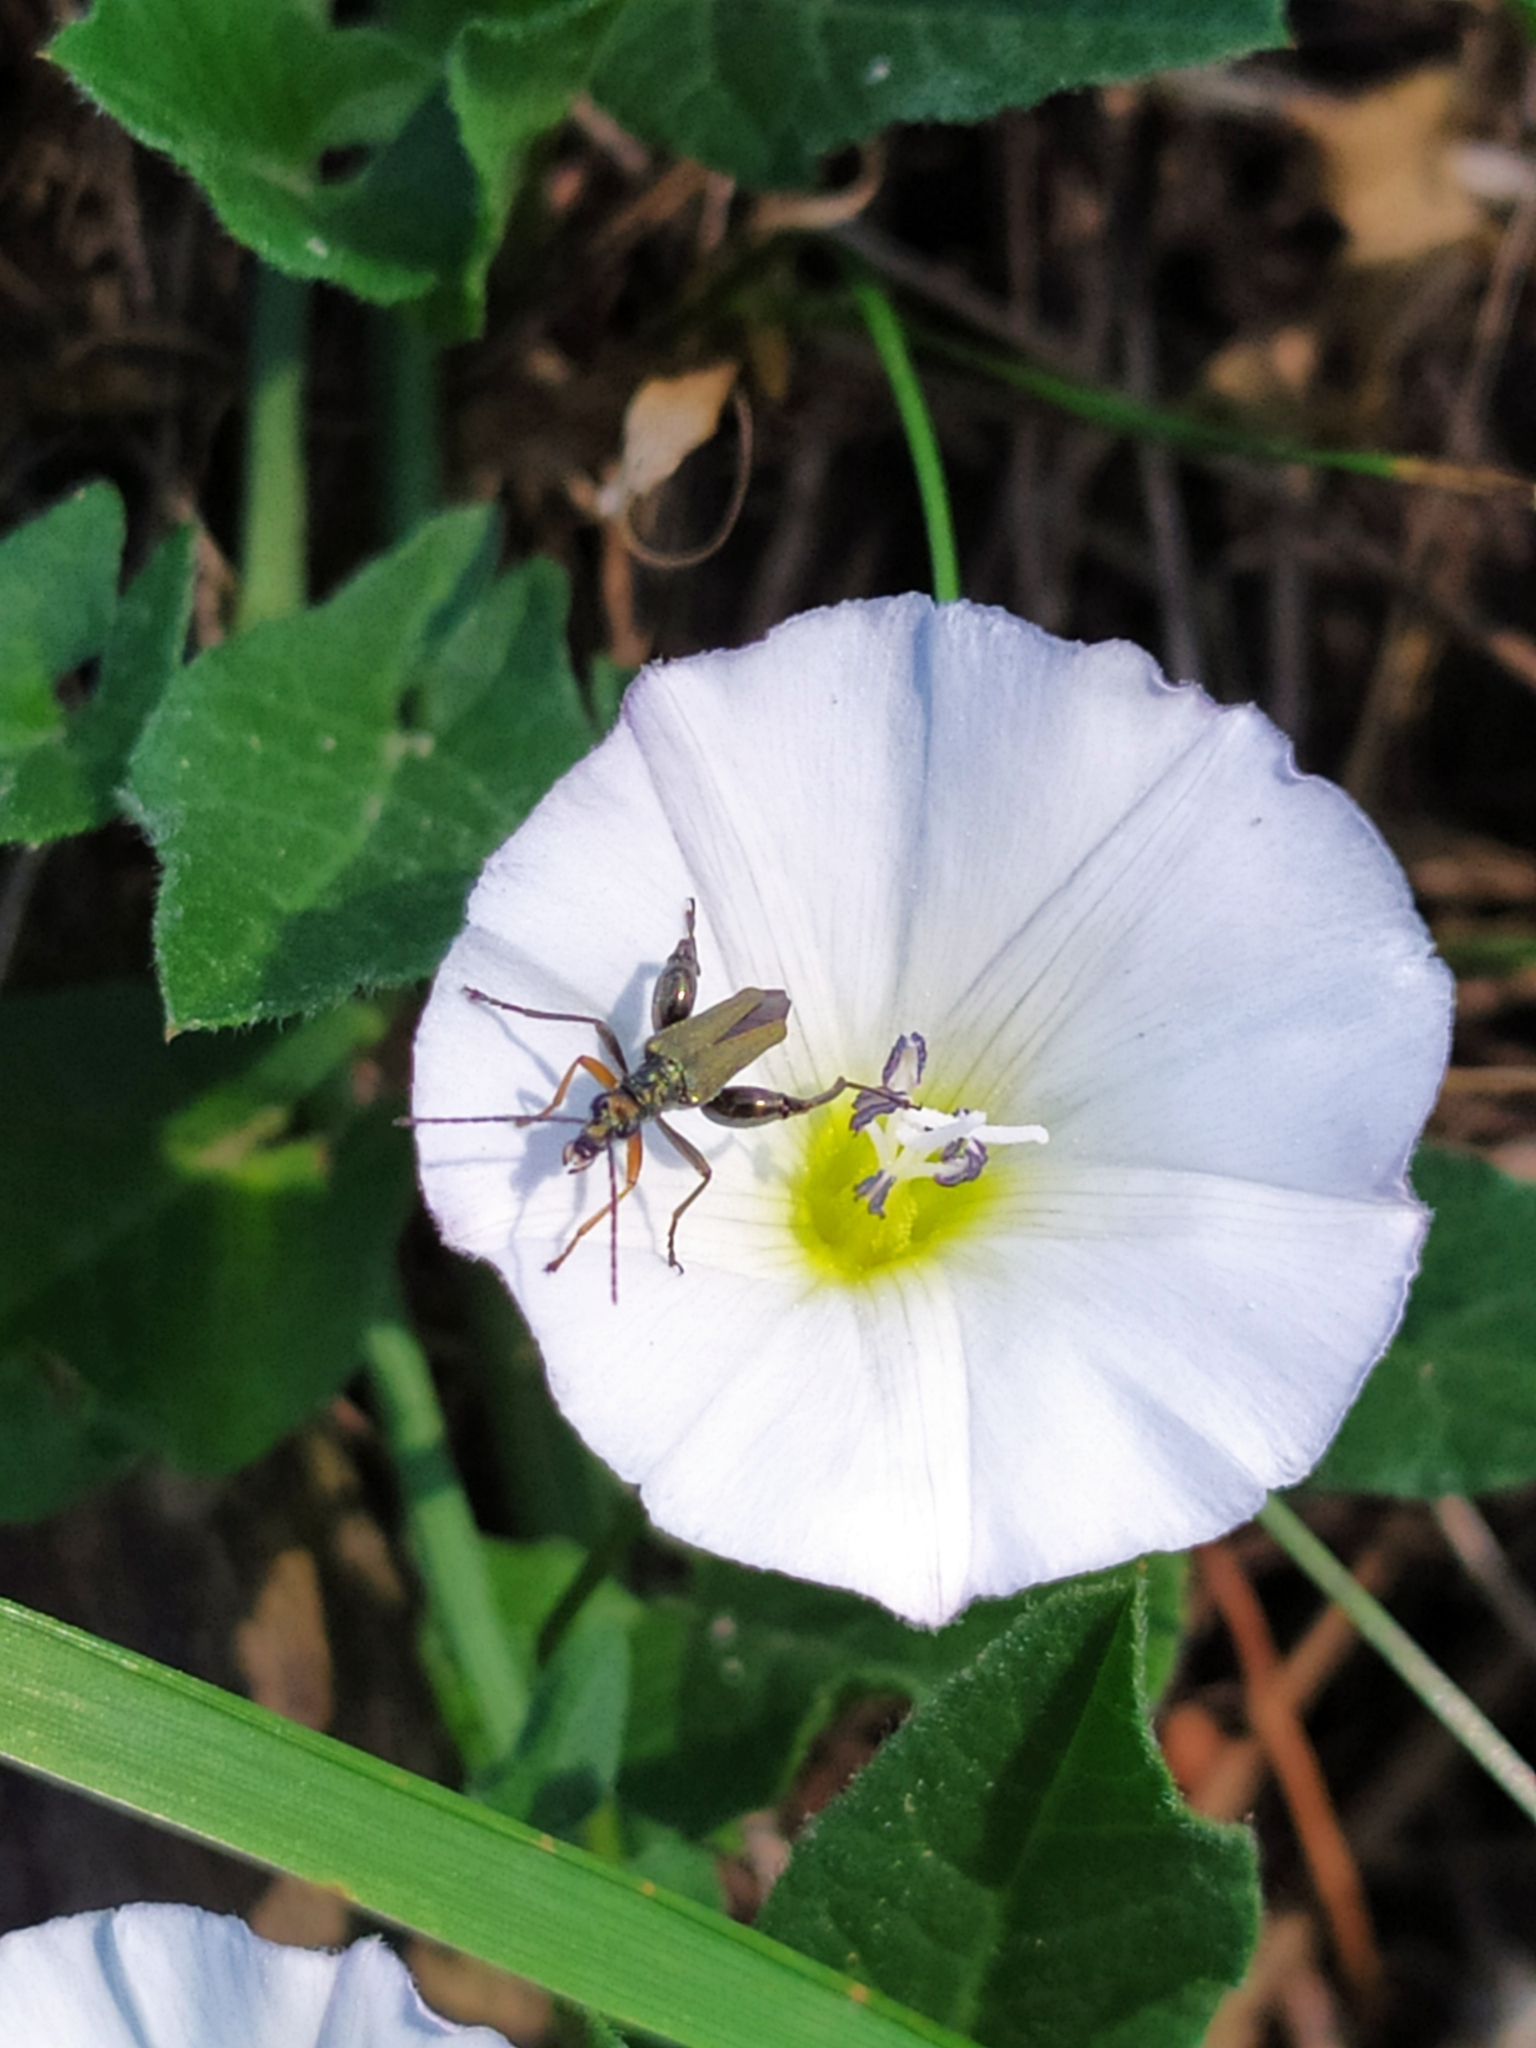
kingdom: Plantae
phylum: Tracheophyta
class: Magnoliopsida
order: Solanales
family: Convolvulaceae
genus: Convolvulus
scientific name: Convolvulus arvensis
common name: Field bindweed
